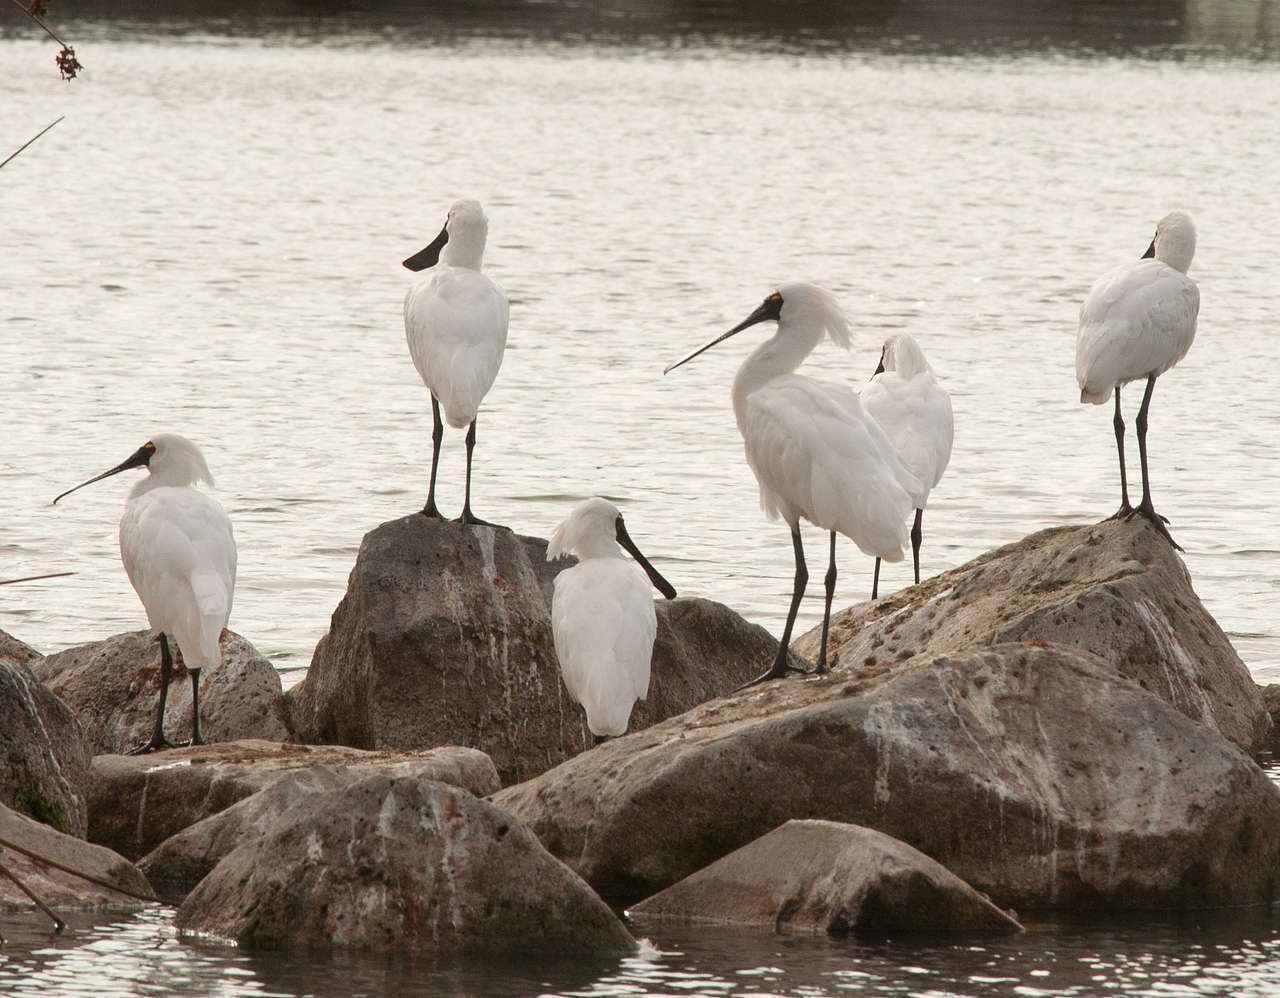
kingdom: Animalia
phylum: Chordata
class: Aves
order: Pelecaniformes
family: Threskiornithidae
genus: Platalea
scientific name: Platalea regia
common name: Royal spoonbill
